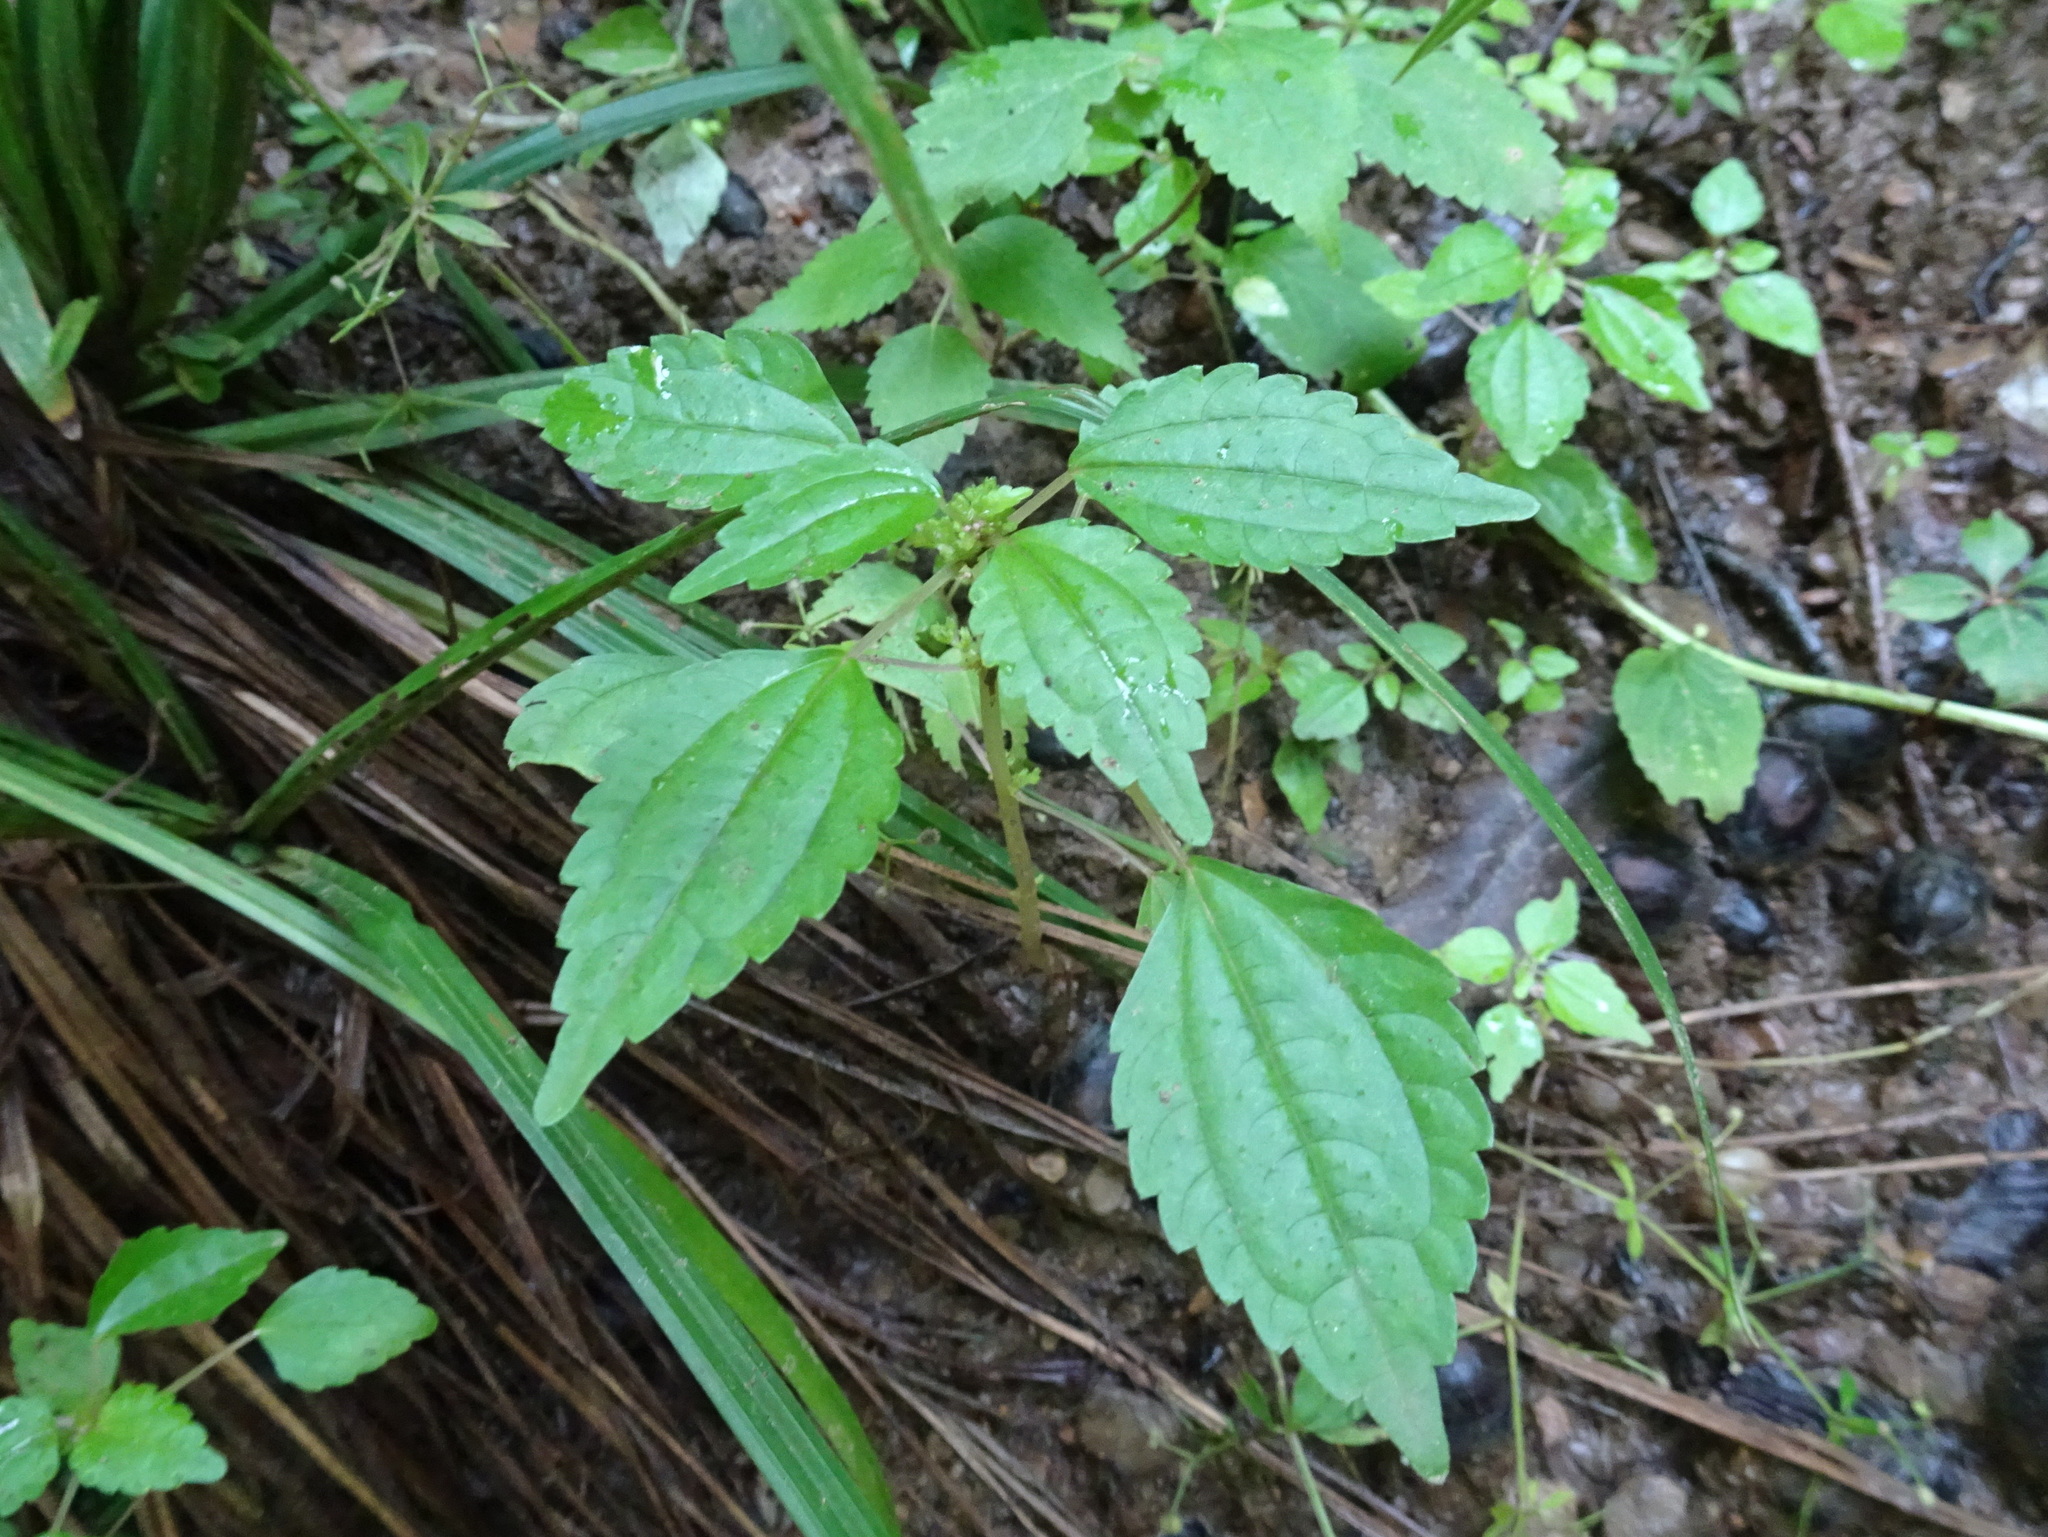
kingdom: Plantae
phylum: Tracheophyta
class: Magnoliopsida
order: Rosales
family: Urticaceae
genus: Pilea
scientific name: Pilea pumila
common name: Clearweed
